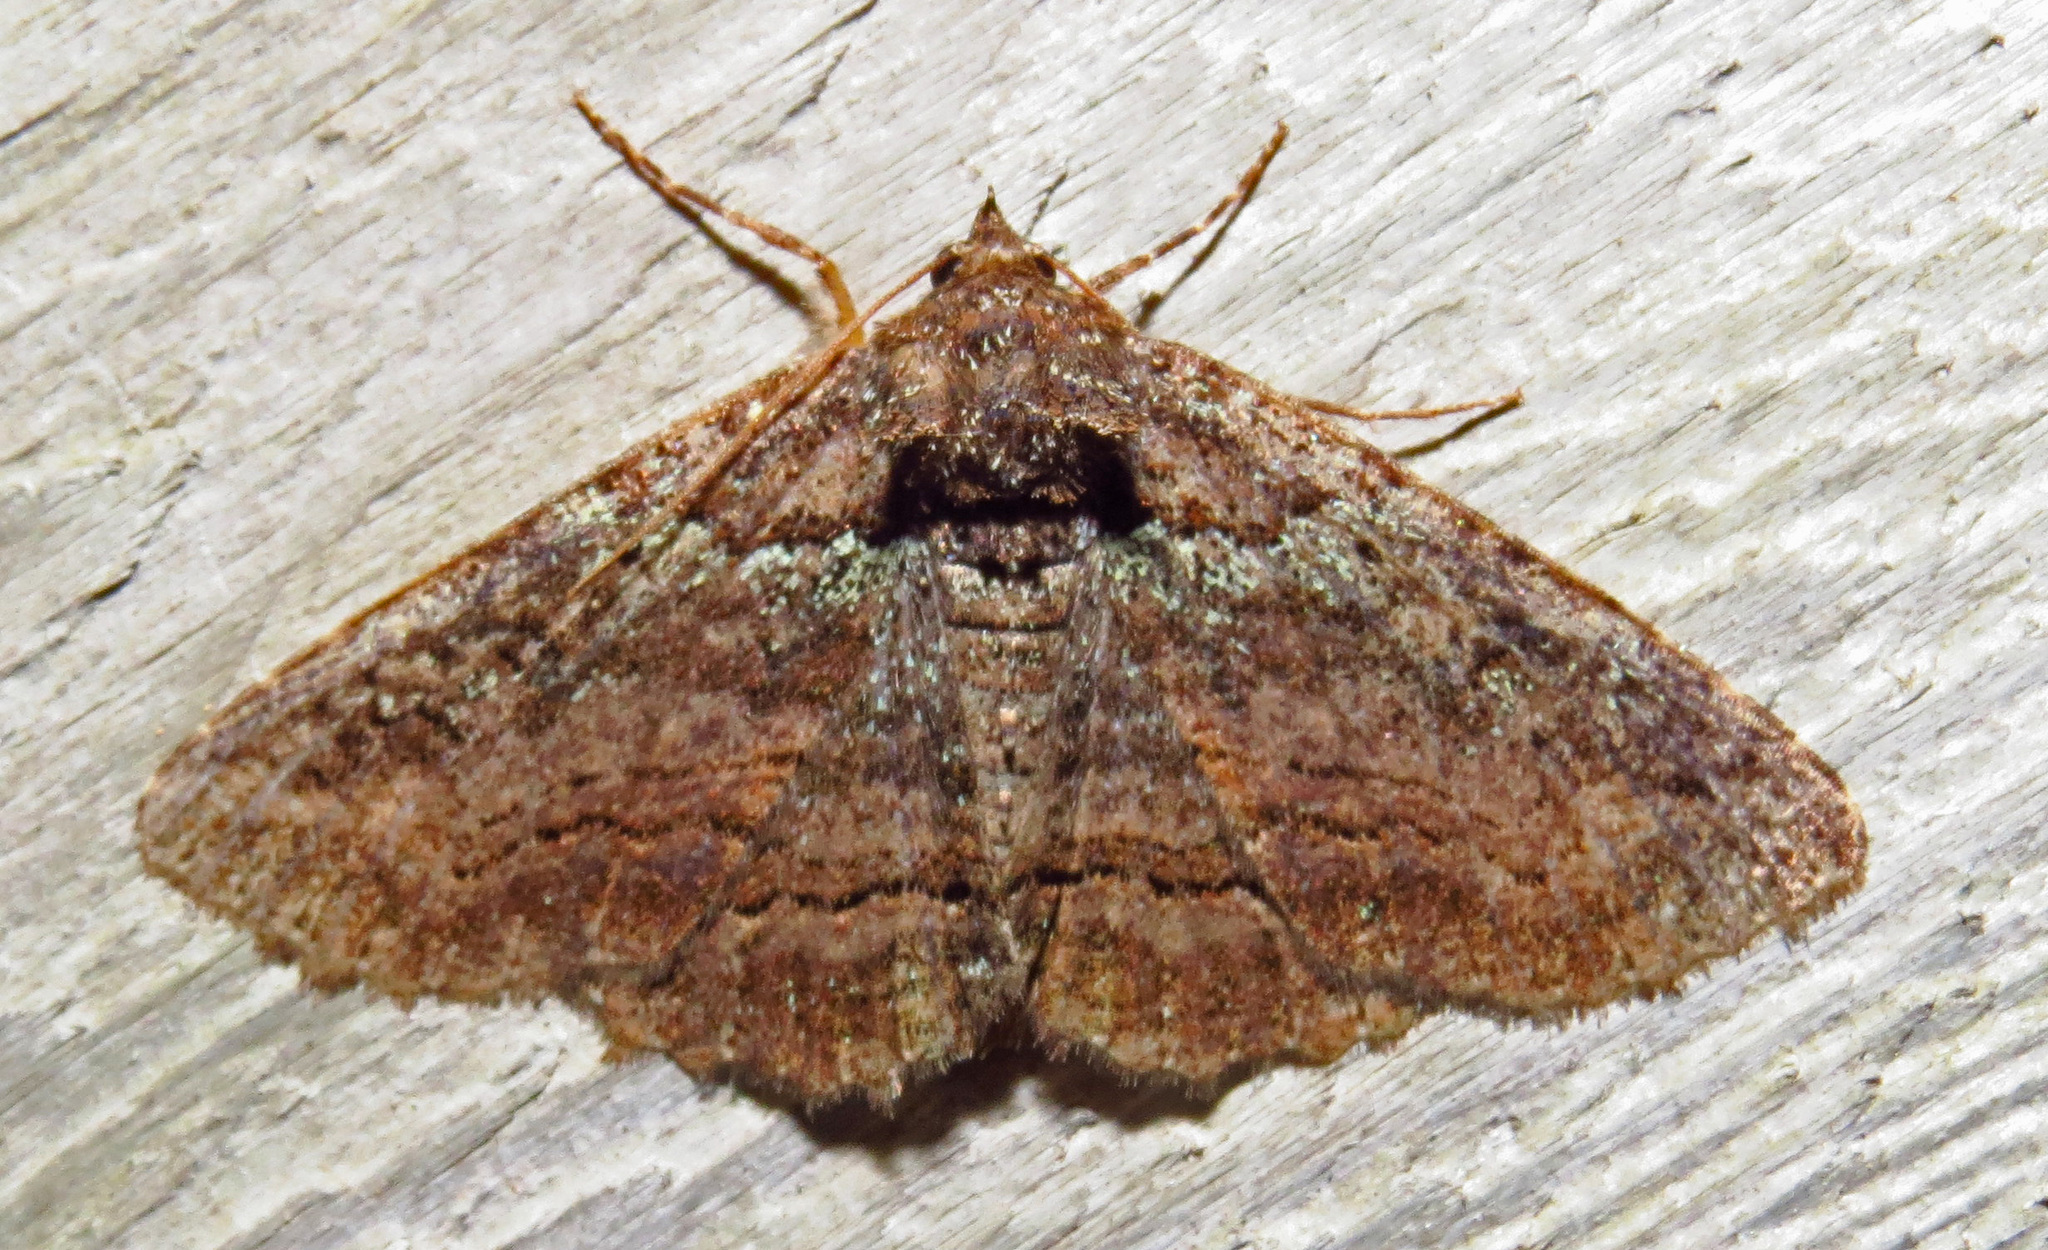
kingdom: Animalia
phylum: Arthropoda
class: Insecta
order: Lepidoptera
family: Erebidae
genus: Zale
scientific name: Zale aeruginosa
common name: Green-dusted zale moth
